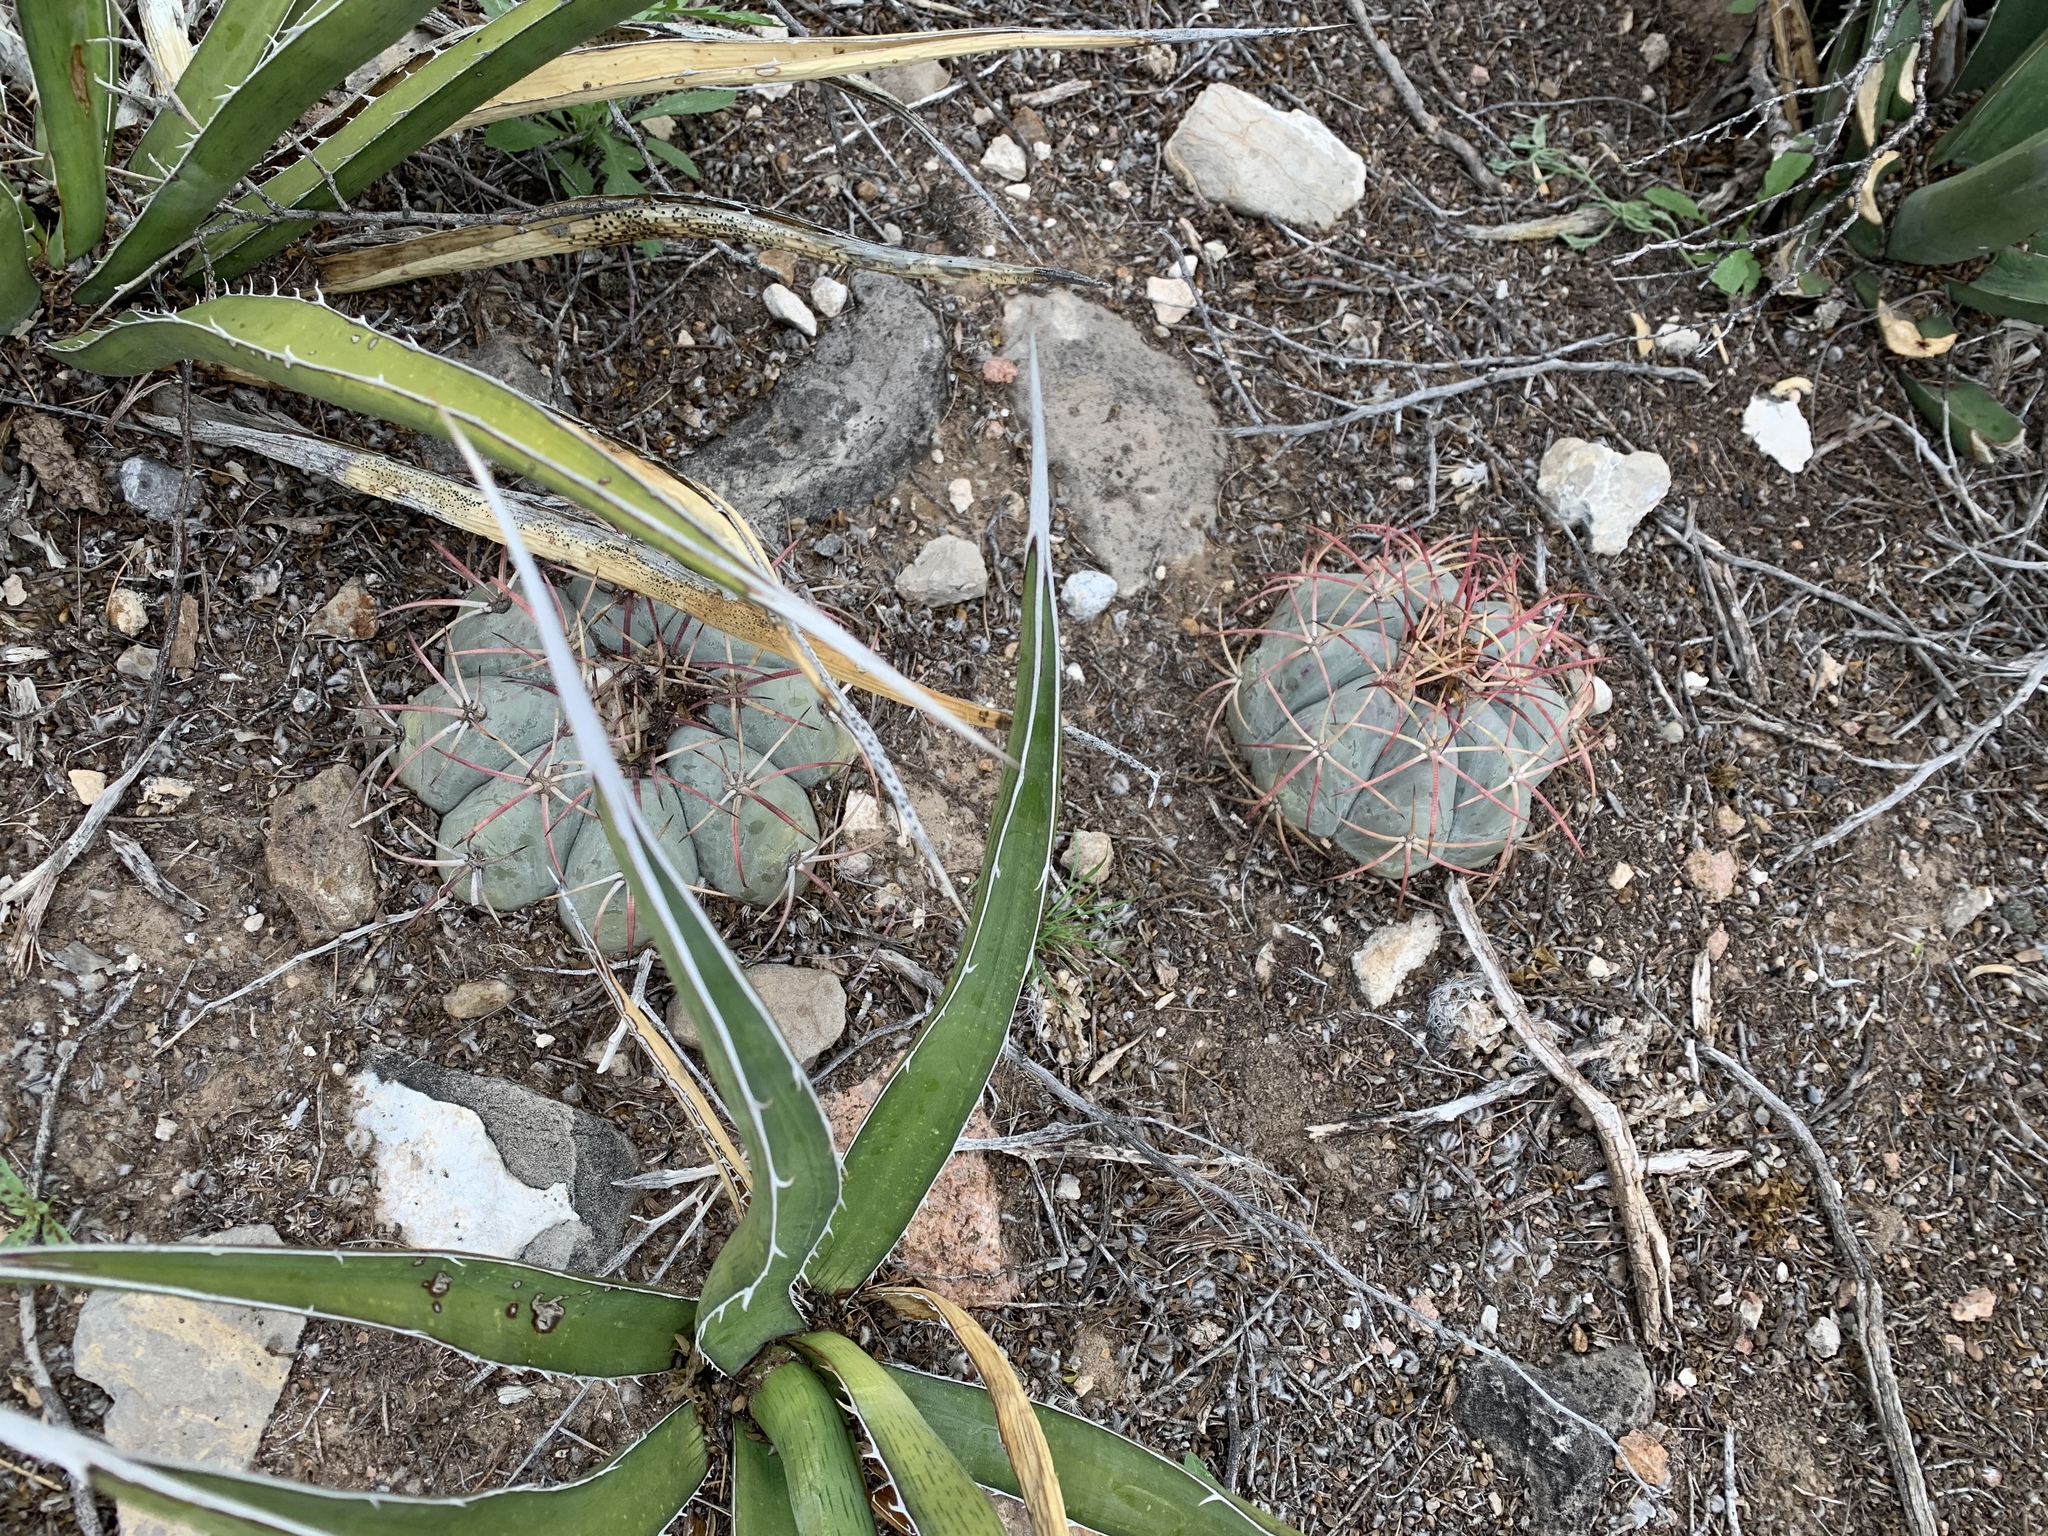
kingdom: Plantae
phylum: Tracheophyta
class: Magnoliopsida
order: Caryophyllales
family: Cactaceae
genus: Echinocactus
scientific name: Echinocactus horizonthalonius
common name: Devilshead
